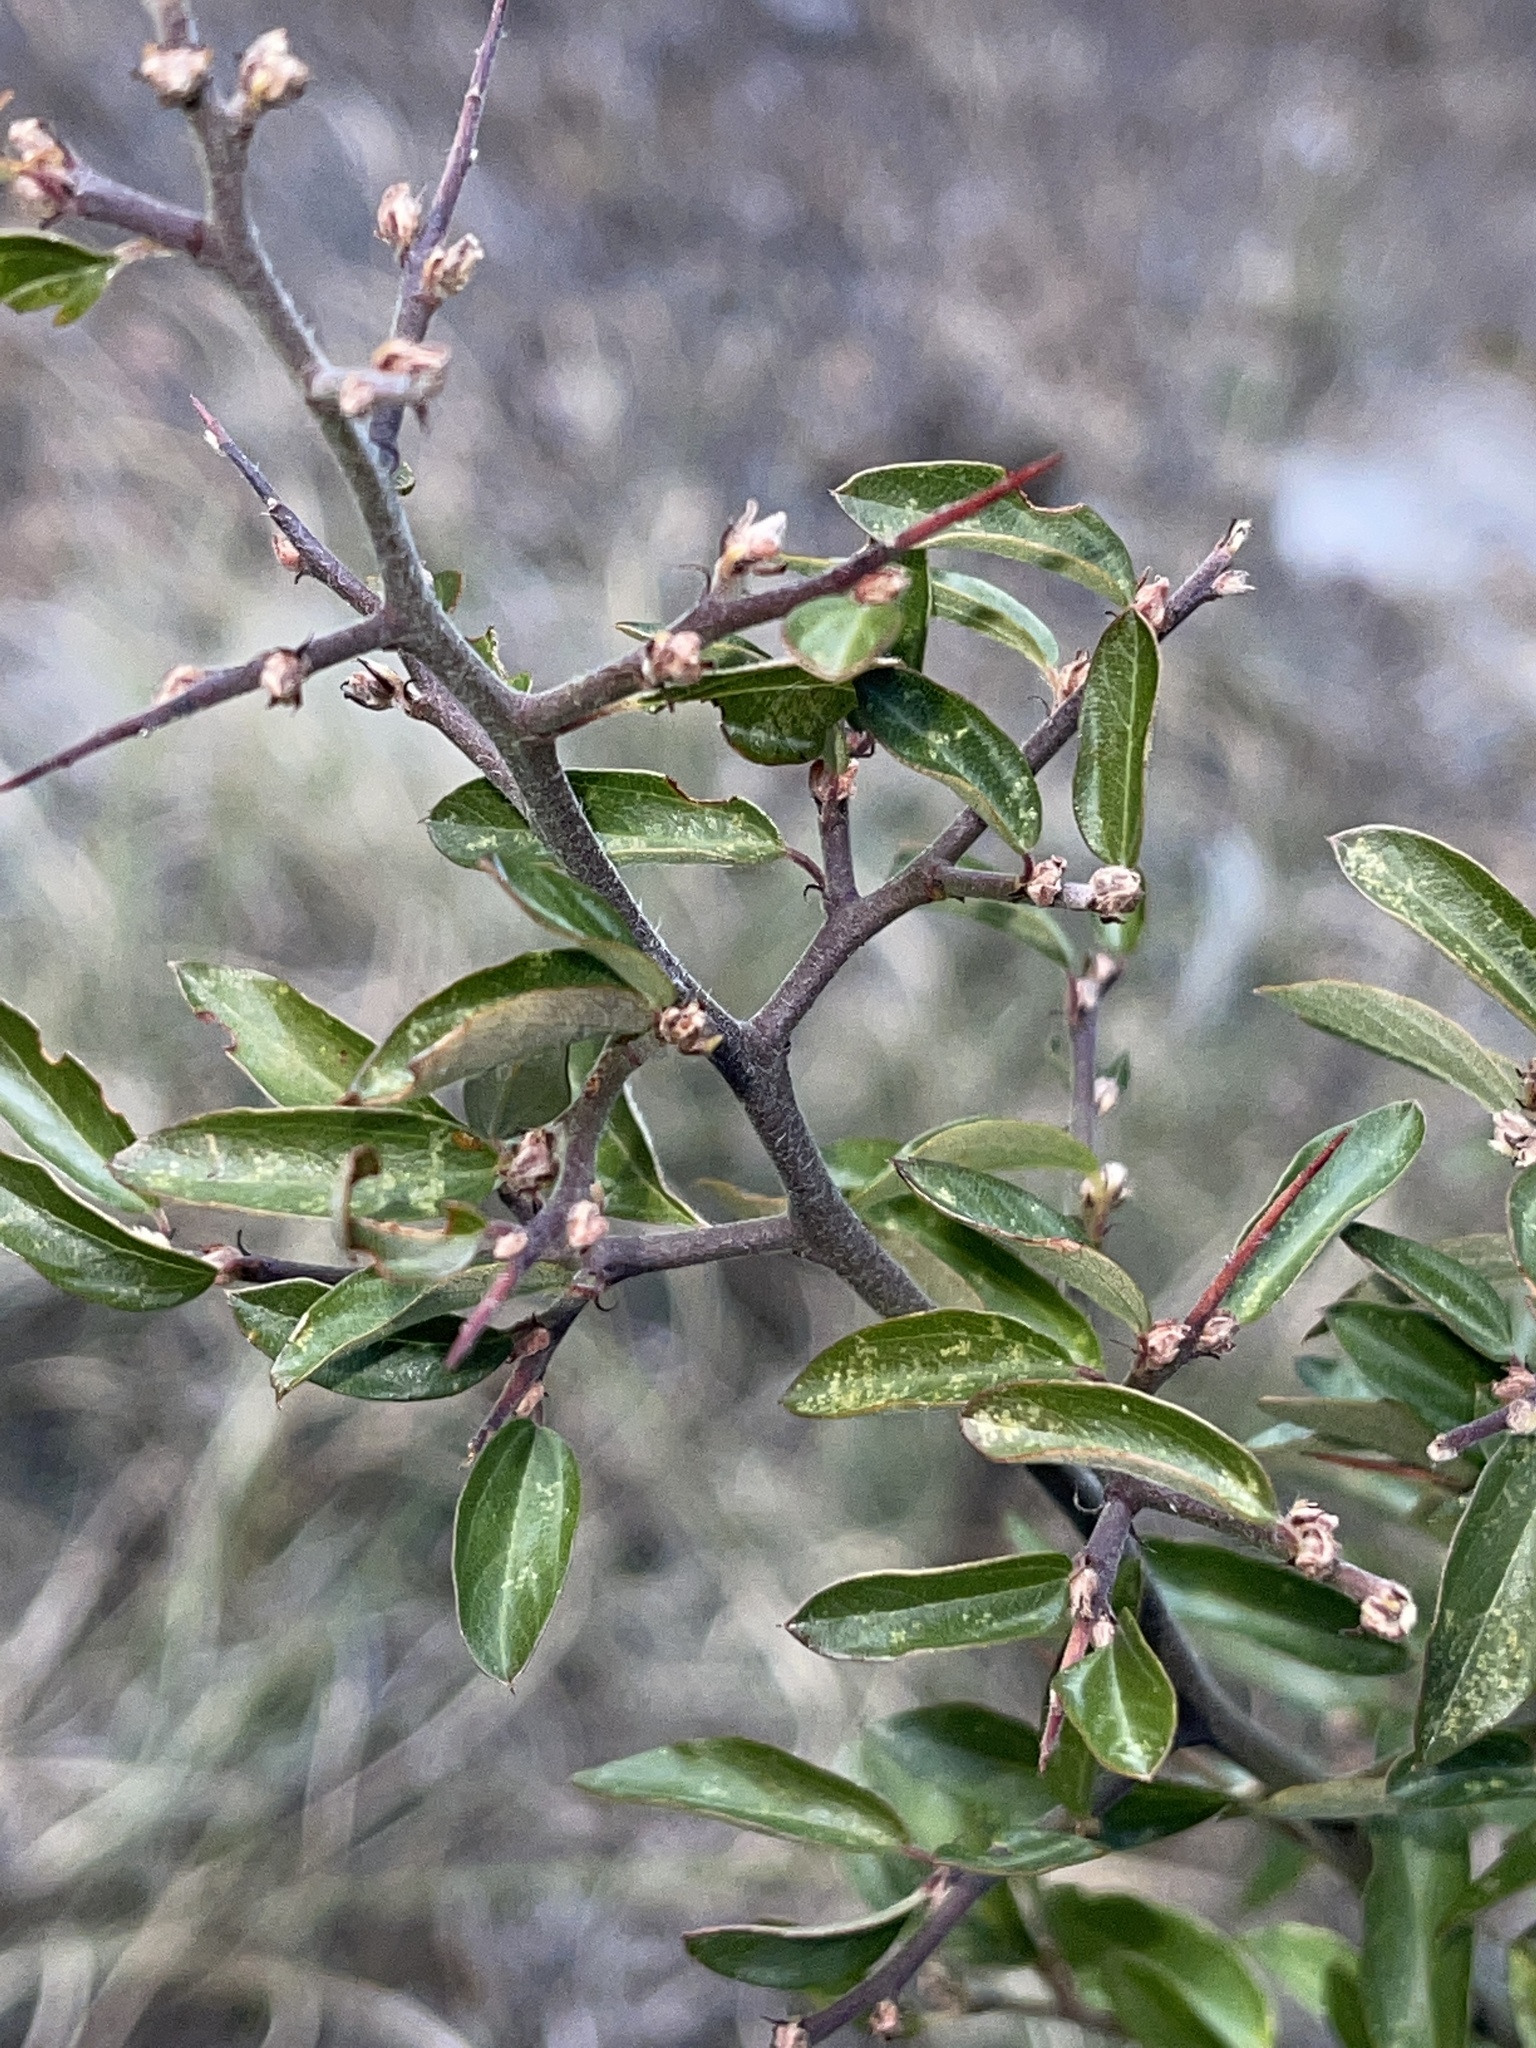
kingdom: Plantae
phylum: Tracheophyta
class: Magnoliopsida
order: Rosales
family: Rhamnaceae
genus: Ceanothus
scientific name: Ceanothus fendleri
